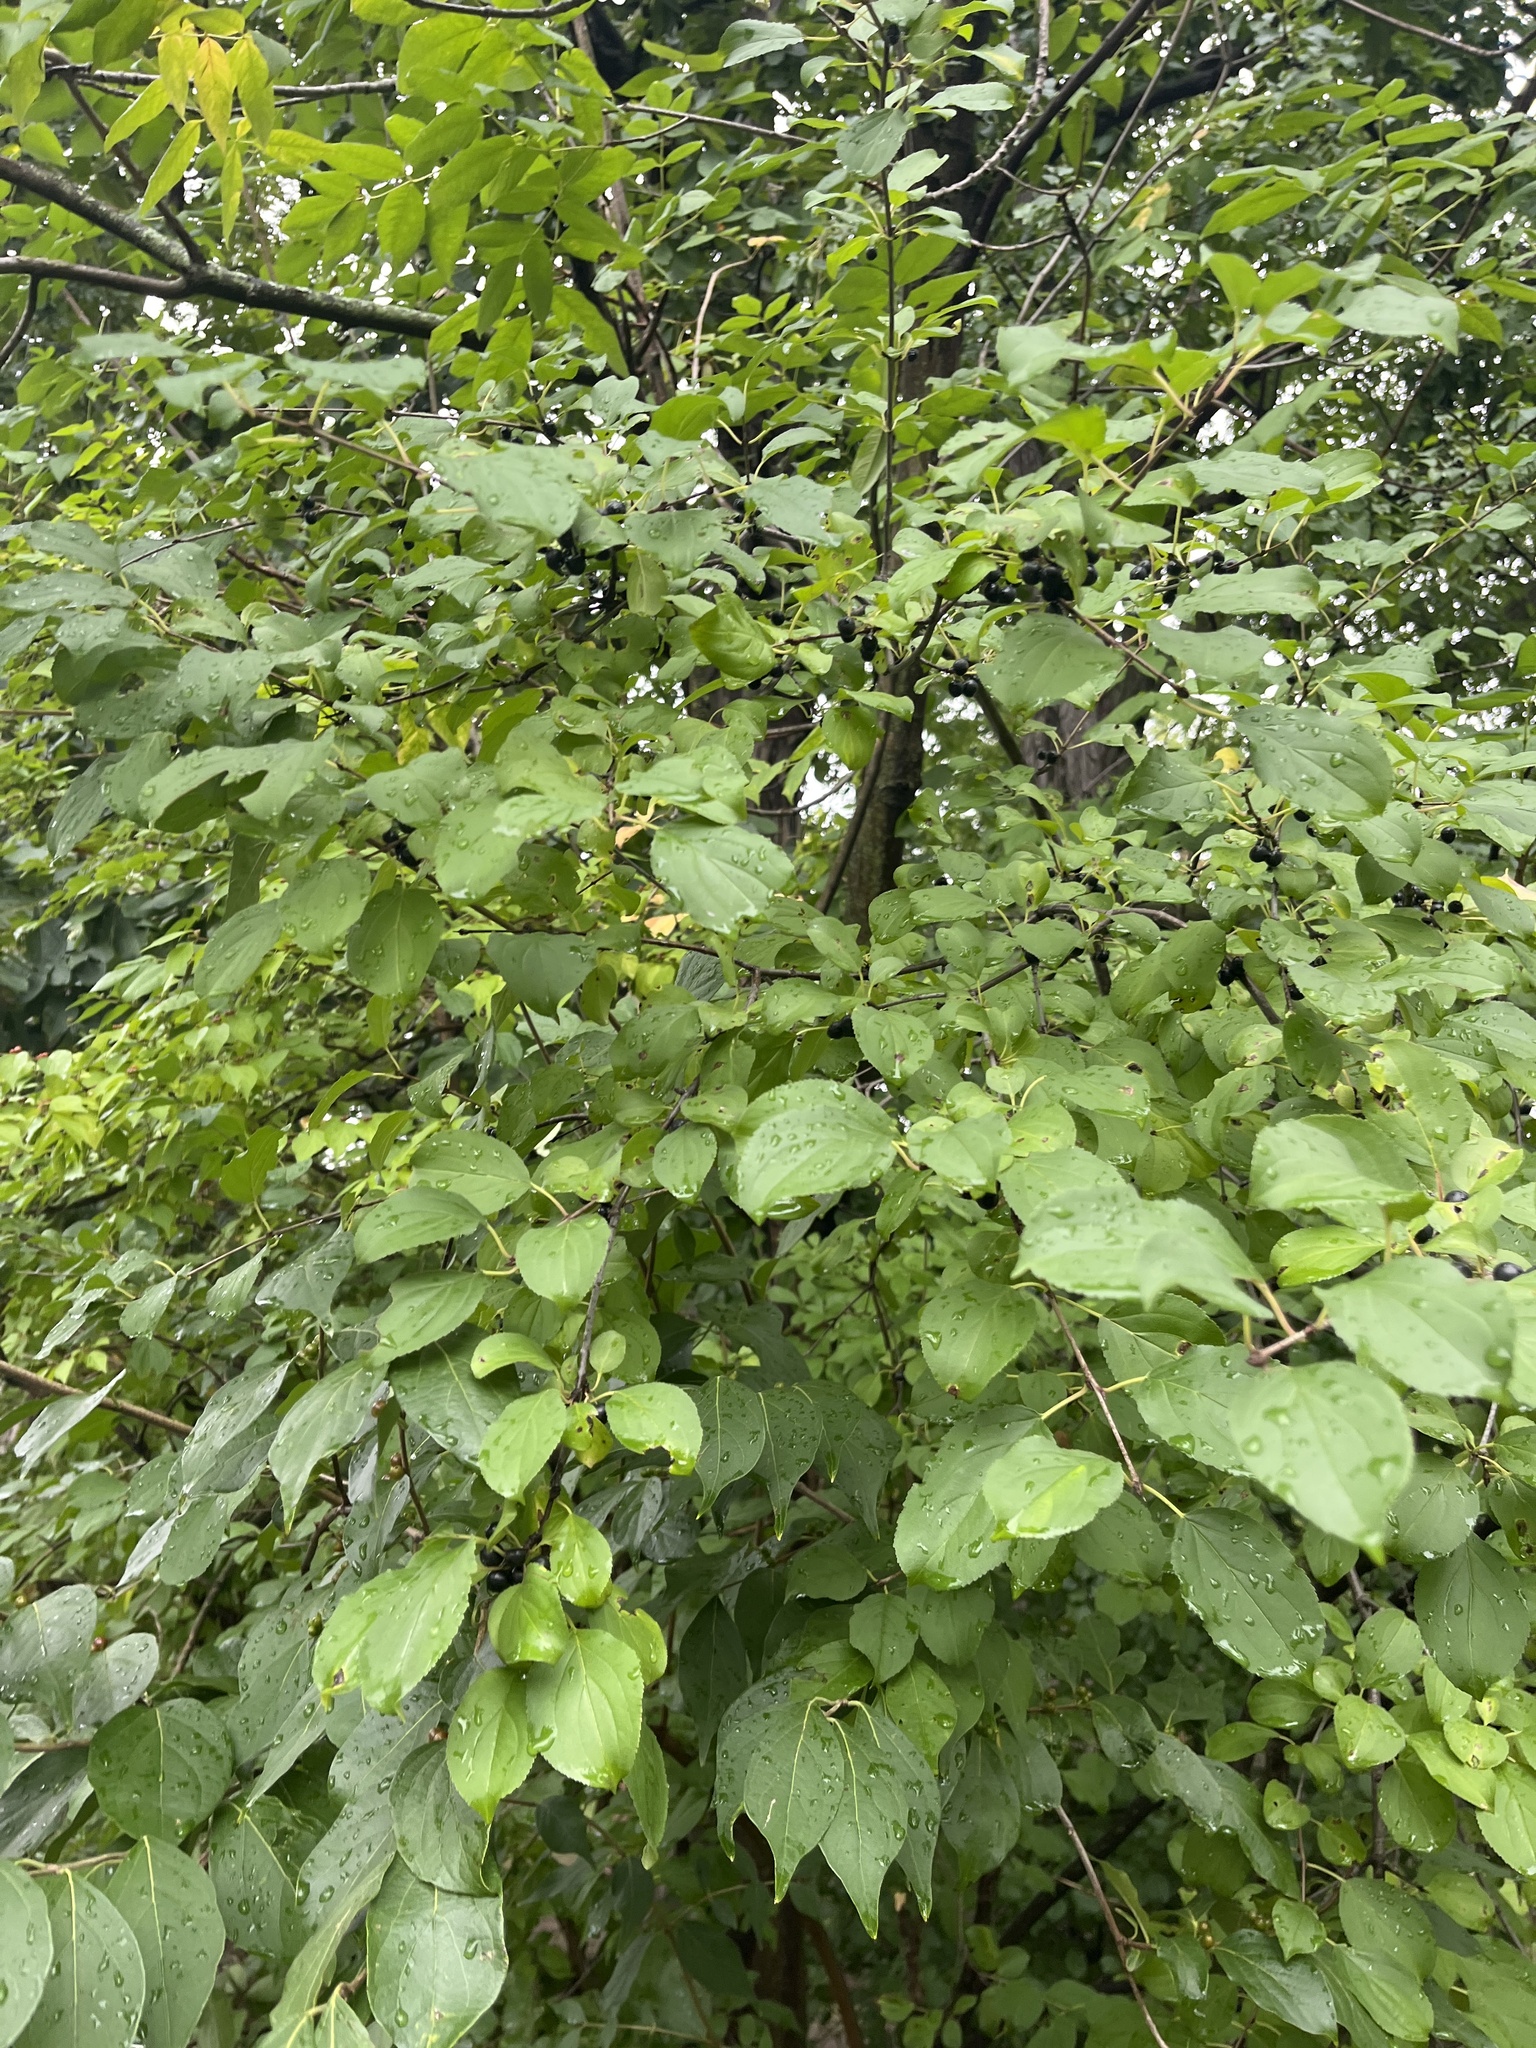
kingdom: Plantae
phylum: Tracheophyta
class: Magnoliopsida
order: Rosales
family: Rhamnaceae
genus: Rhamnus
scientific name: Rhamnus cathartica
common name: Common buckthorn
